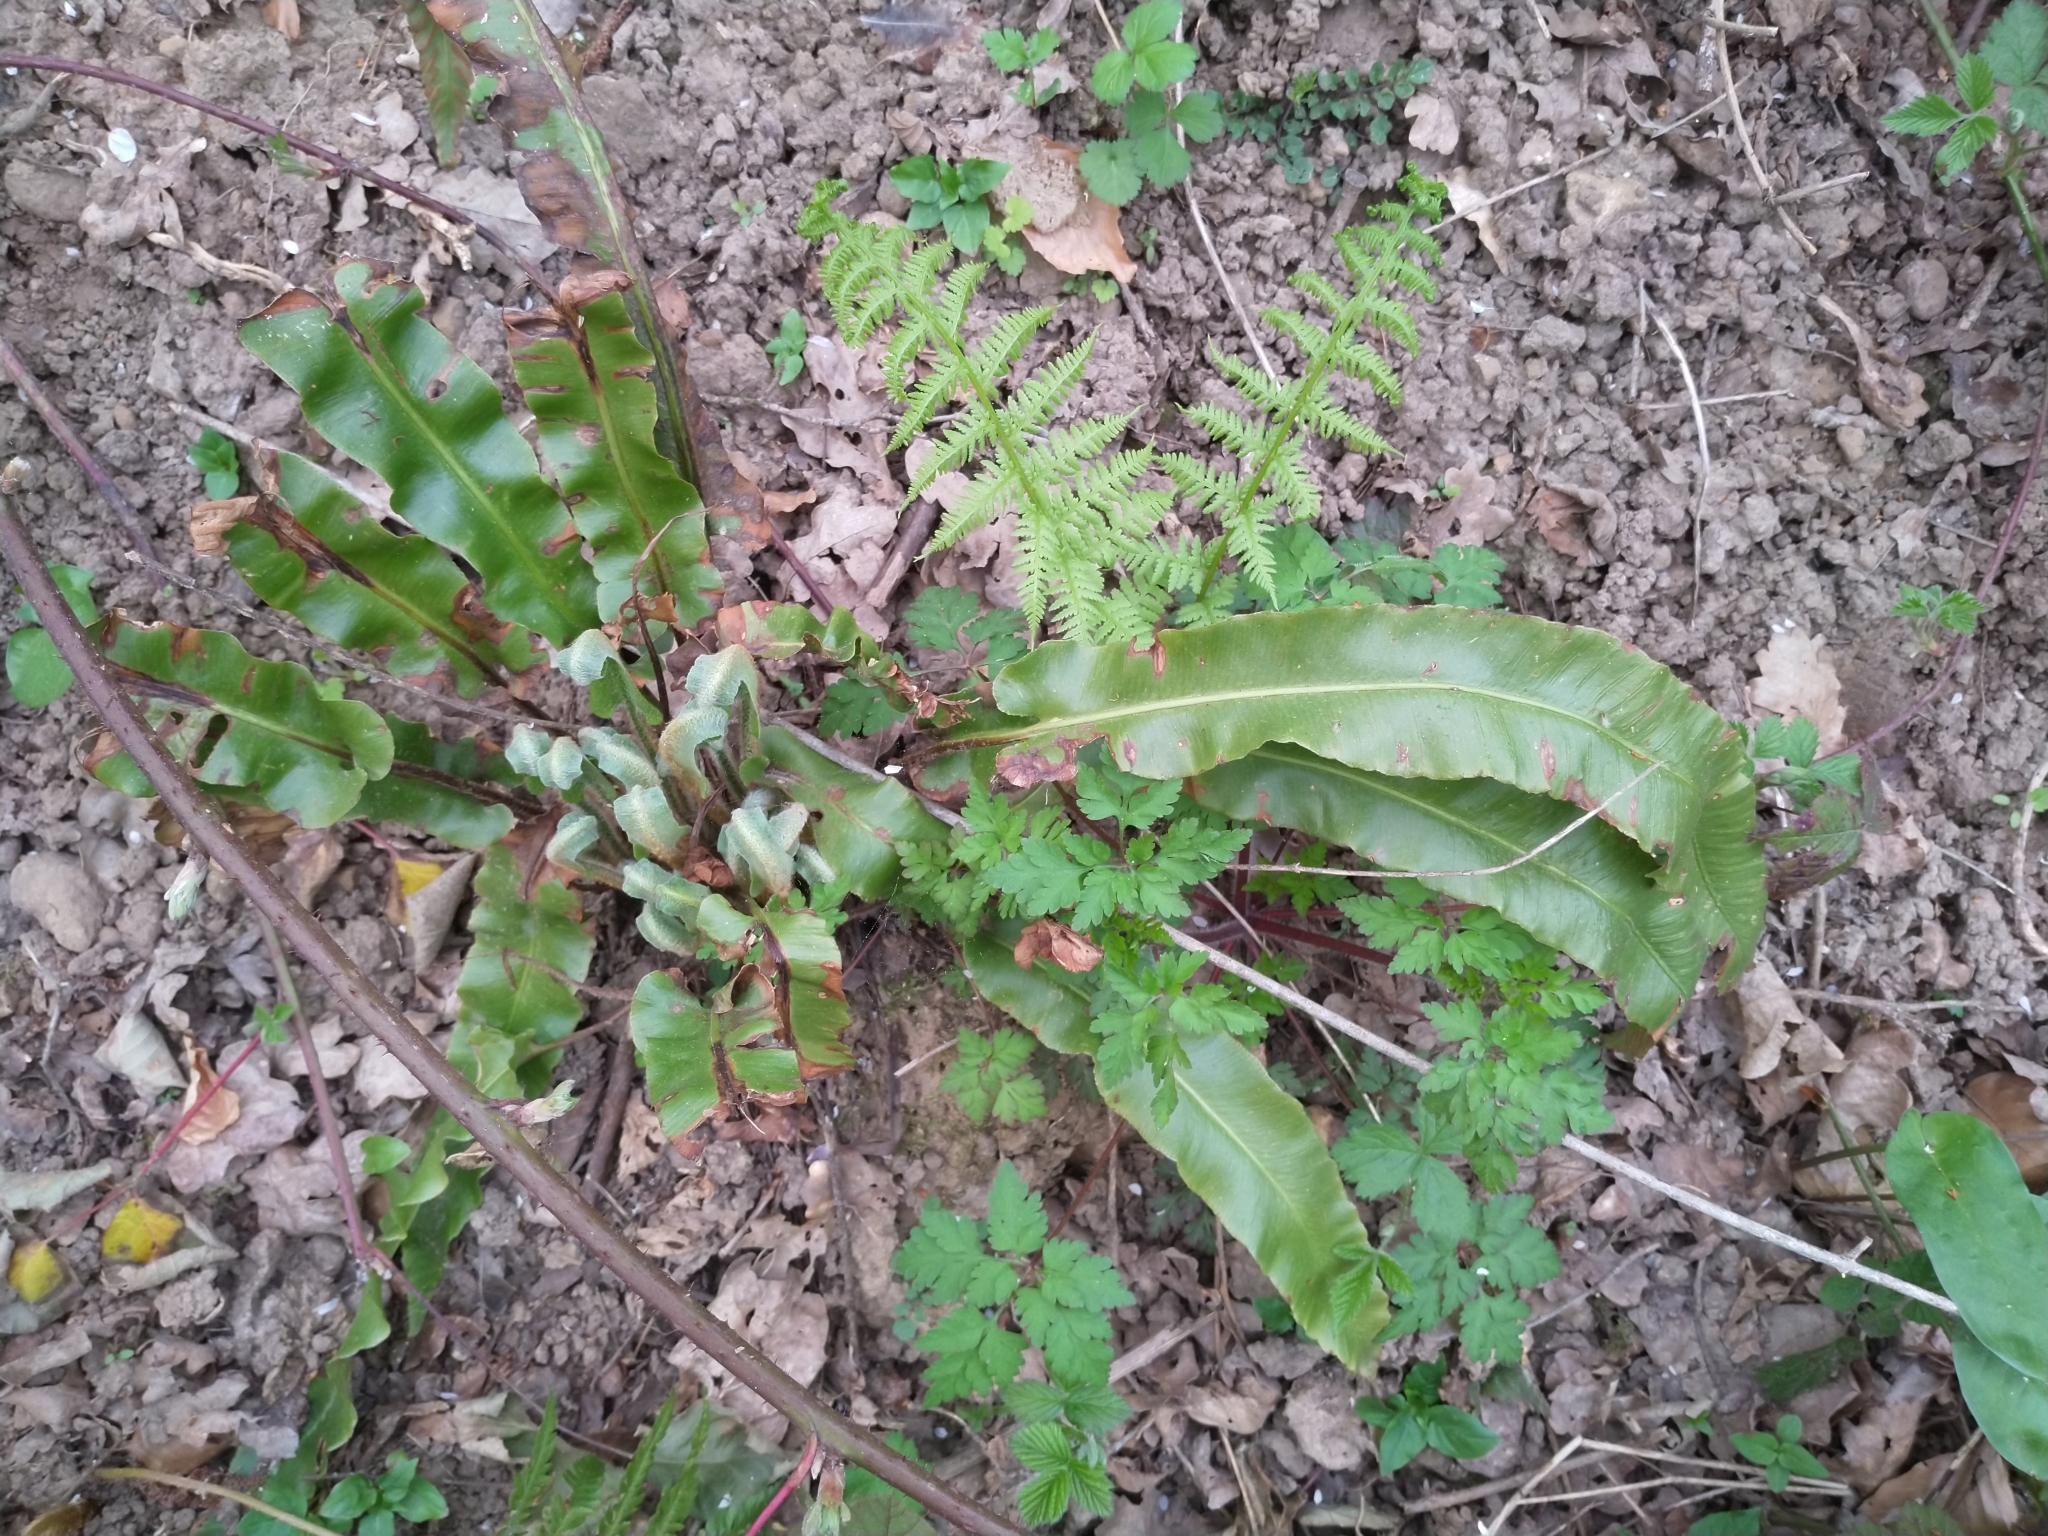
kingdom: Plantae
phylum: Tracheophyta
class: Polypodiopsida
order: Polypodiales
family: Aspleniaceae
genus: Asplenium
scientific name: Asplenium scolopendrium
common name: Hart's-tongue fern
